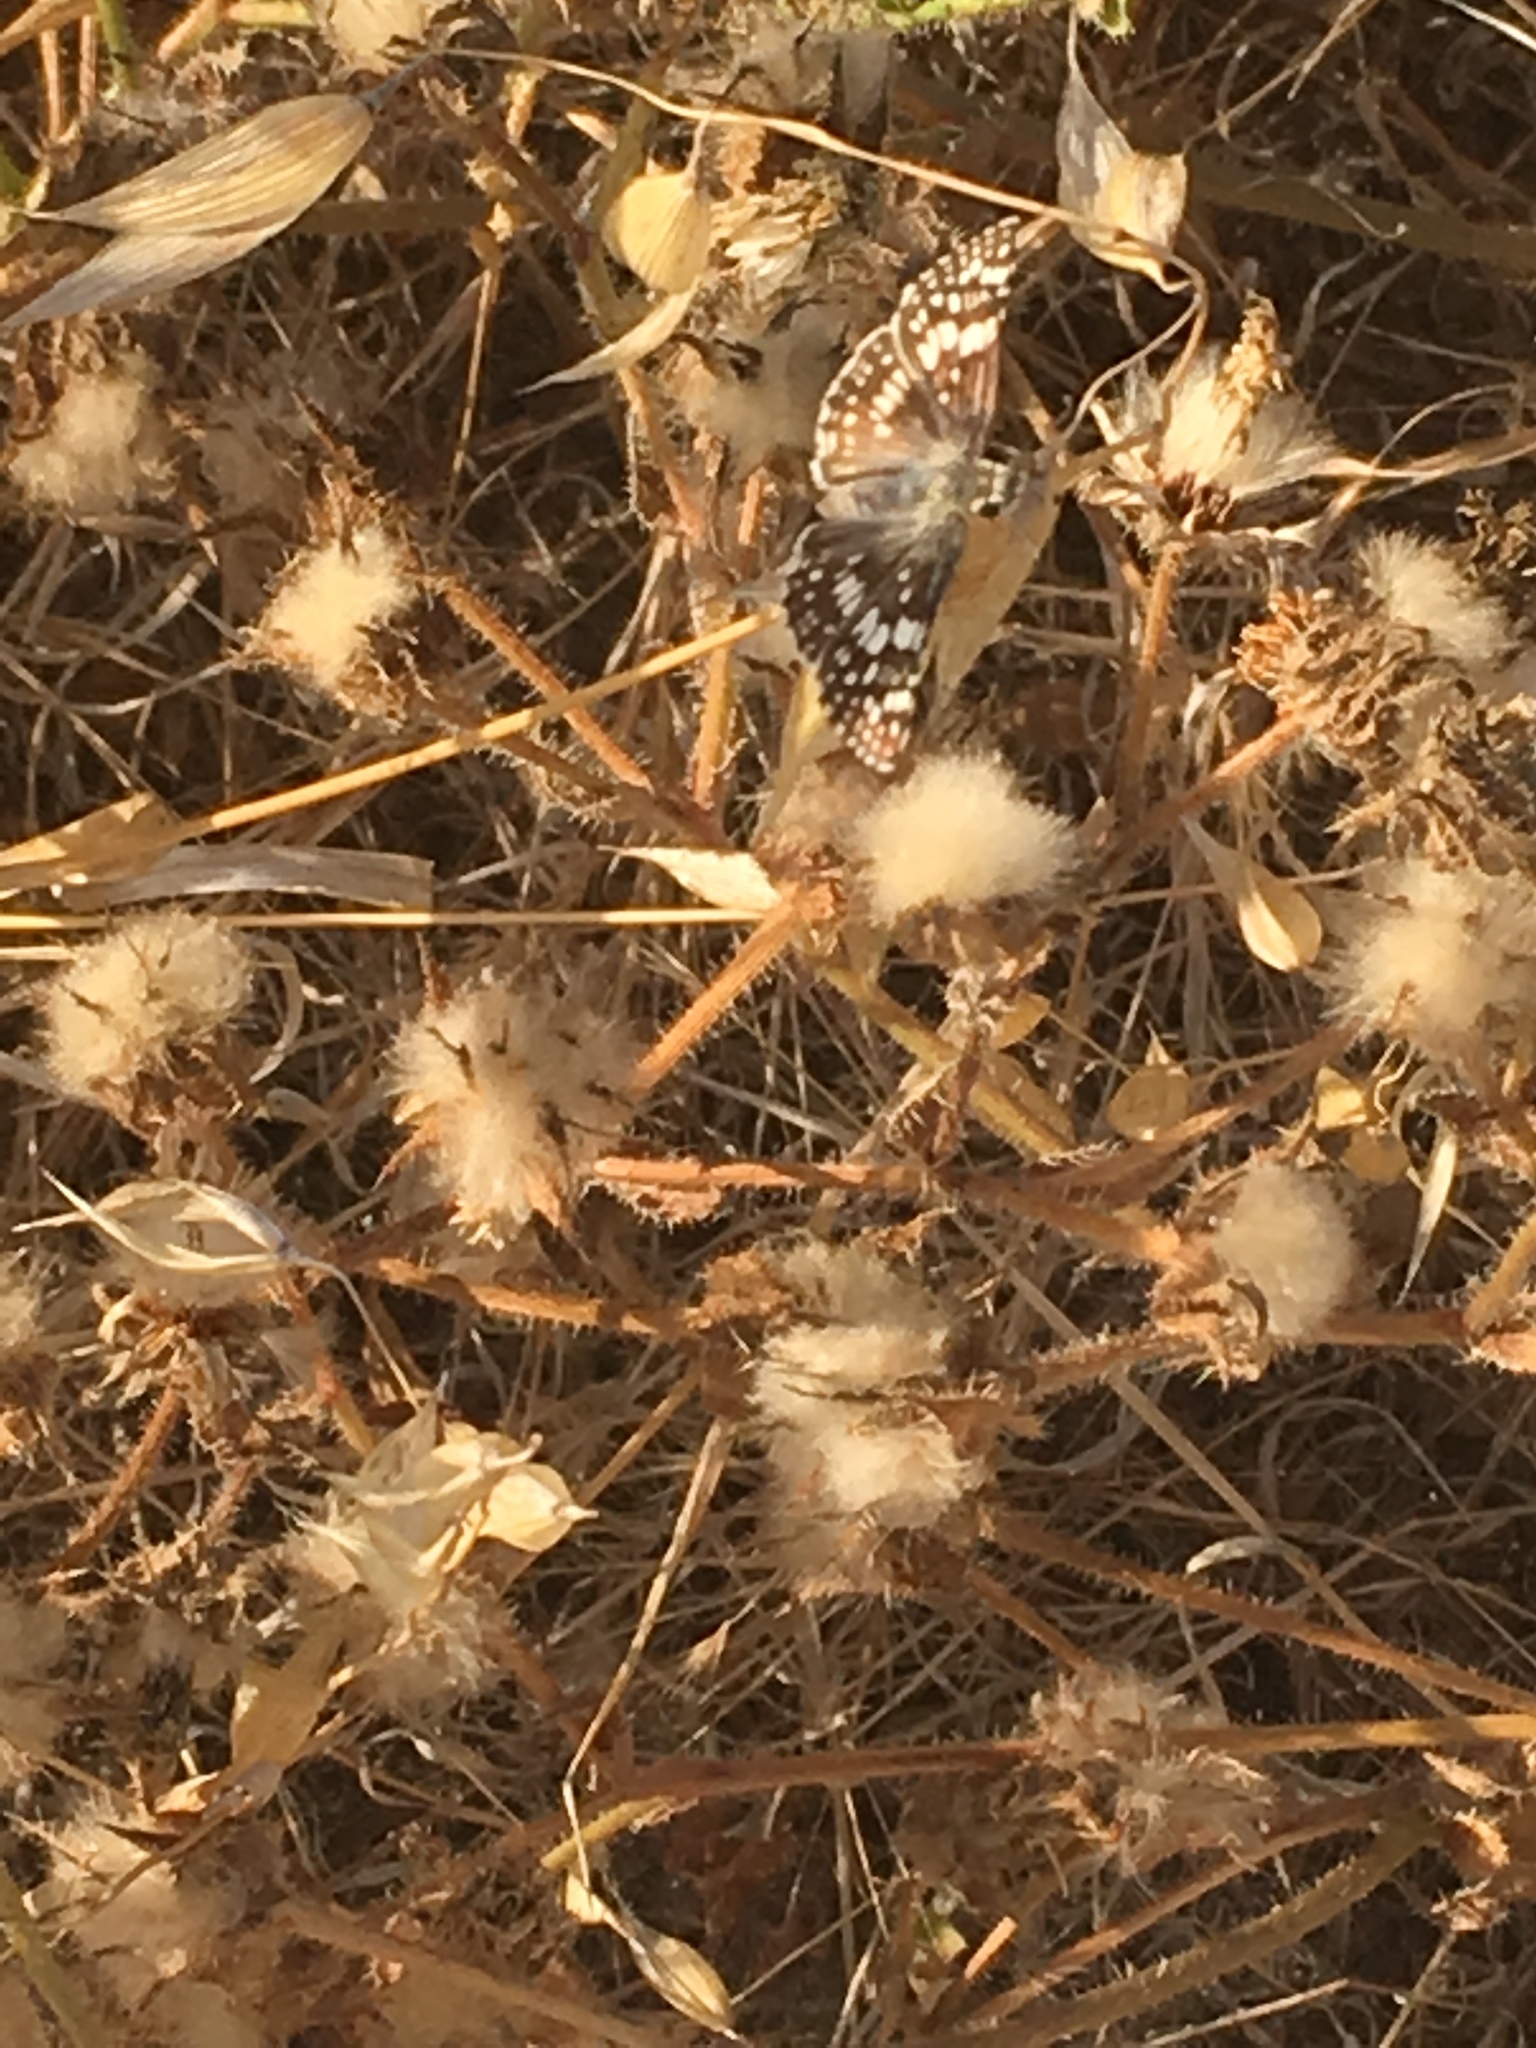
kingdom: Animalia
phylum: Arthropoda
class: Insecta
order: Lepidoptera
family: Hesperiidae
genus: Burnsius
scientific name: Burnsius albezens
